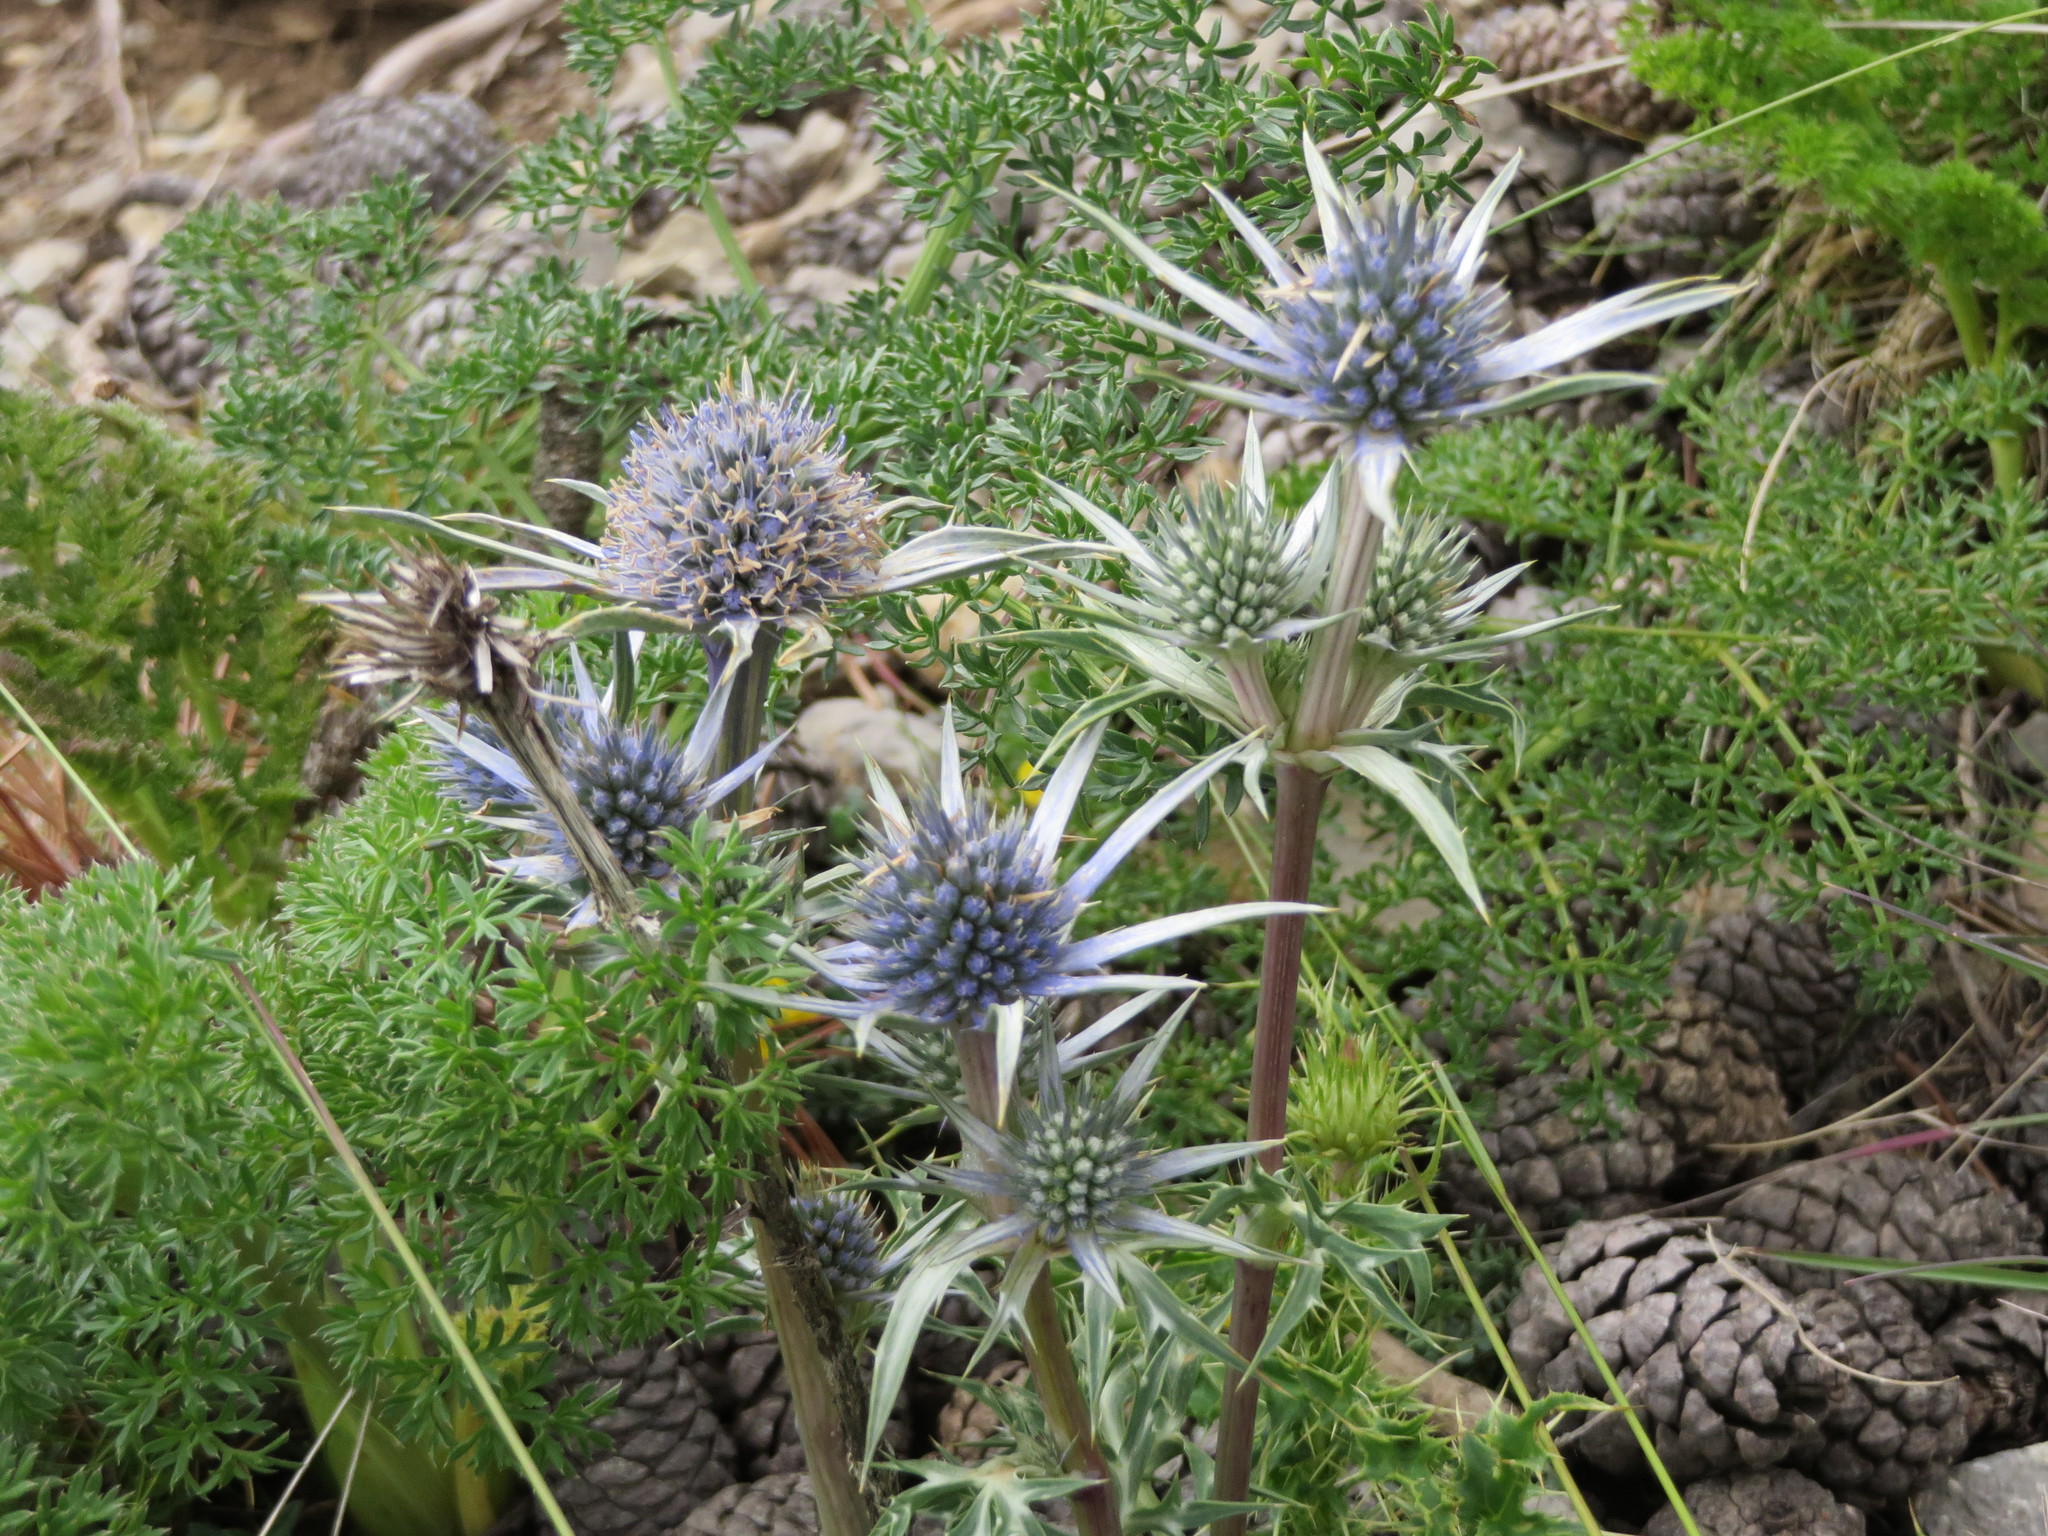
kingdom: Plantae
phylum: Tracheophyta
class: Magnoliopsida
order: Apiales
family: Apiaceae
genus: Eryngium
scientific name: Eryngium bourgatii
